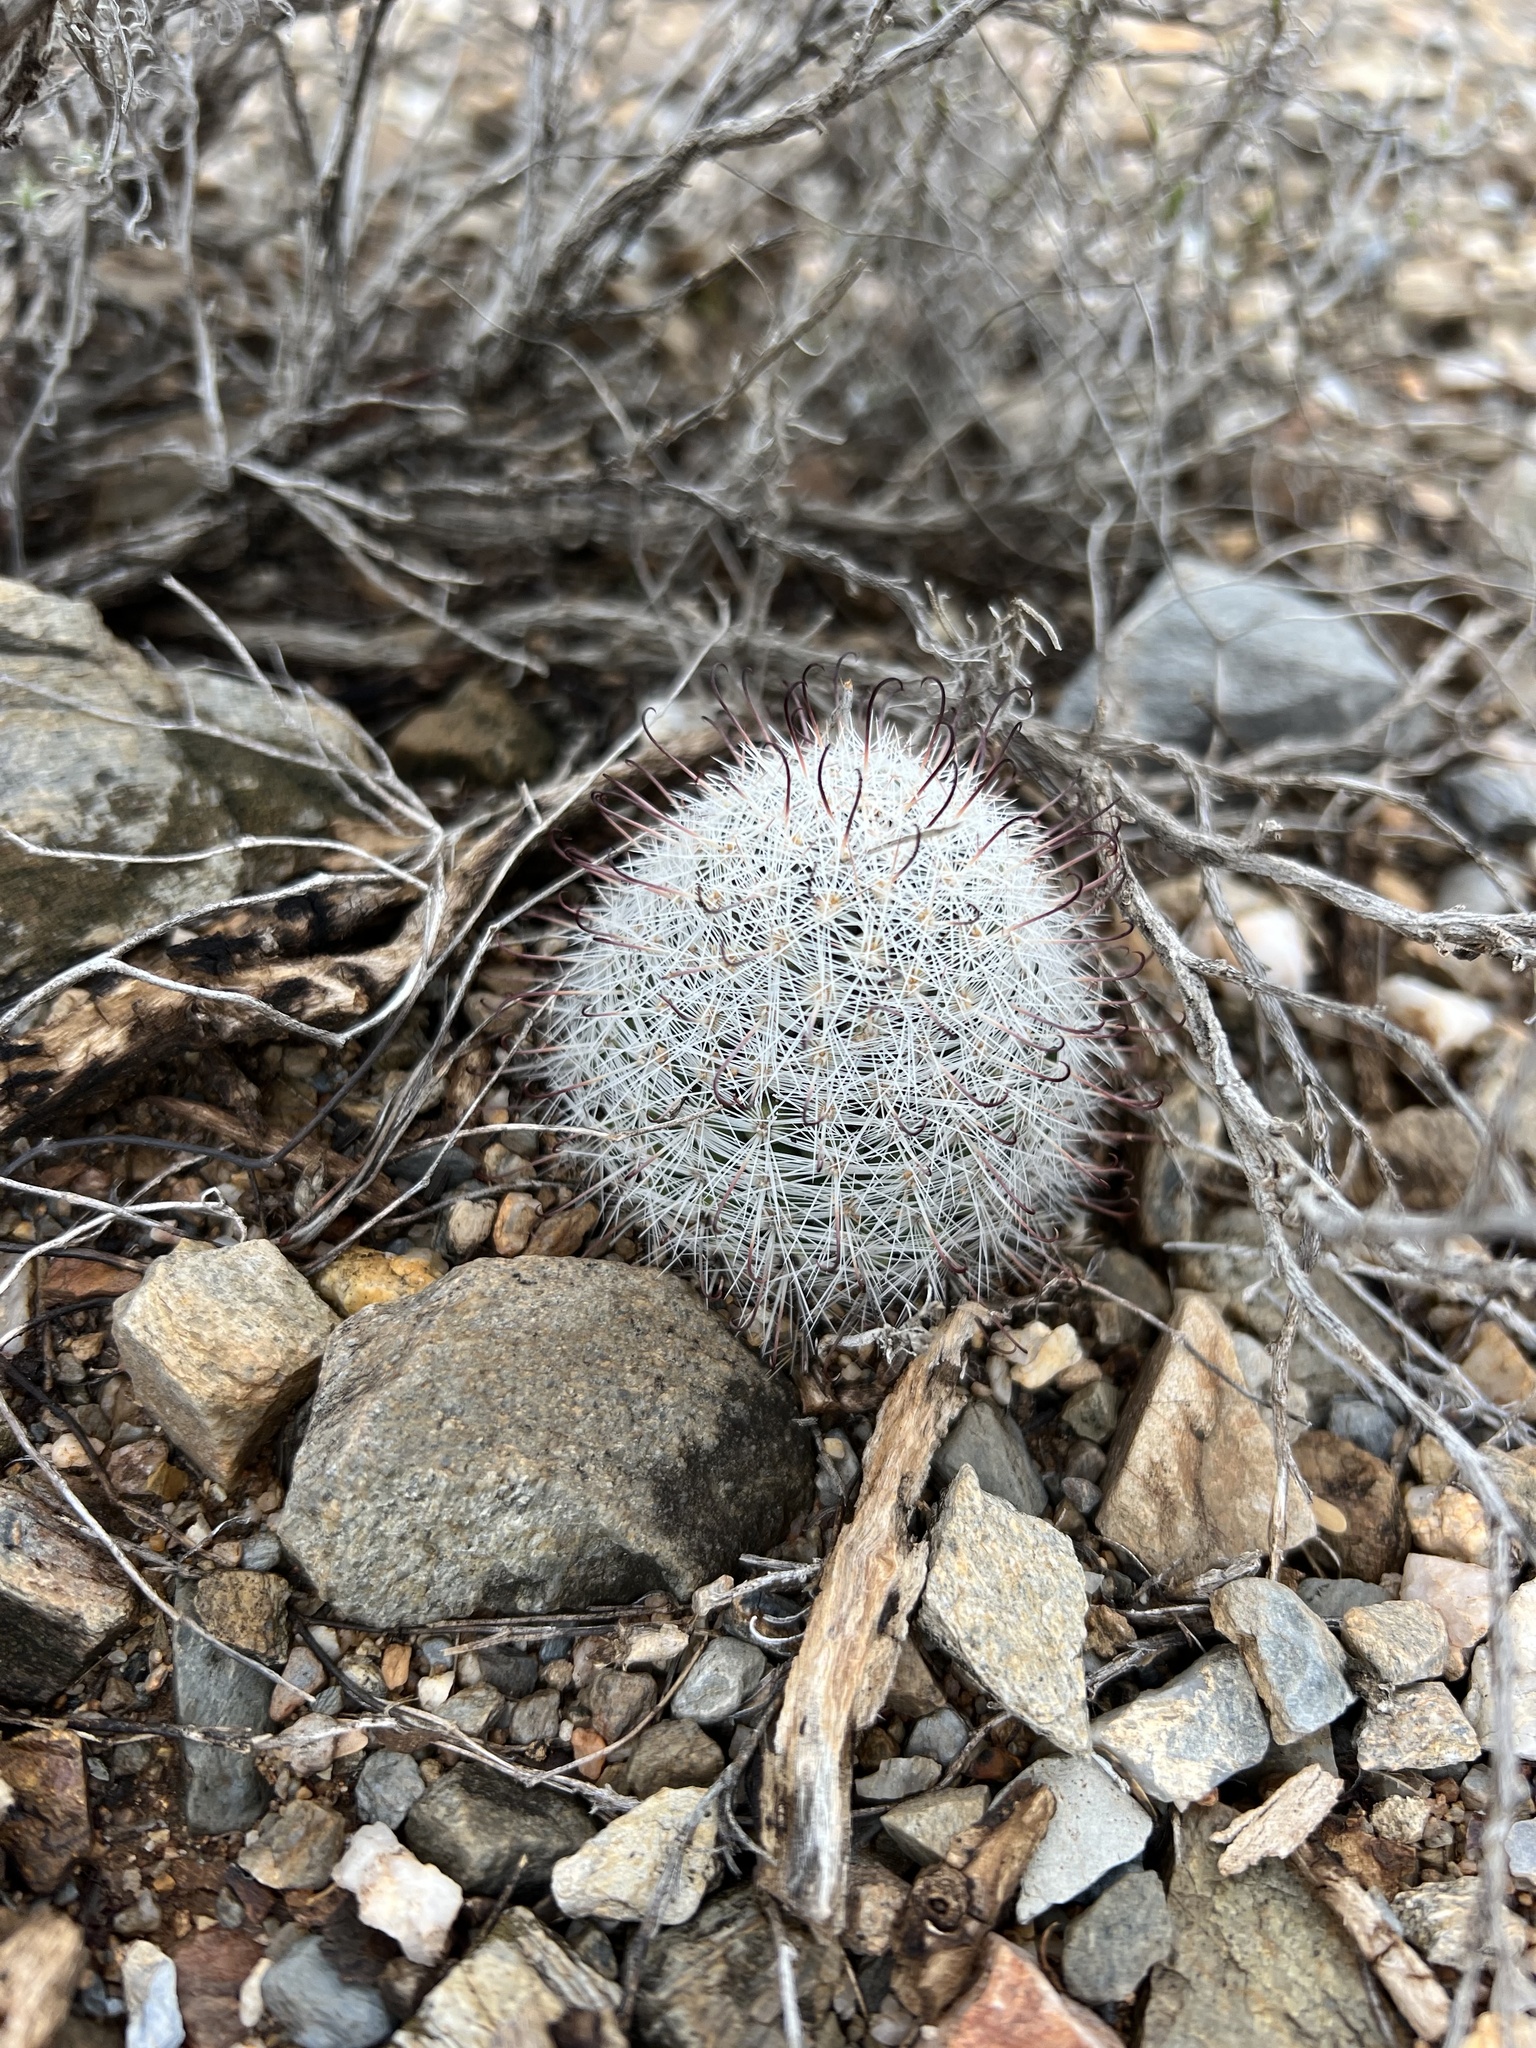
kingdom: Plantae
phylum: Tracheophyta
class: Magnoliopsida
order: Caryophyllales
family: Cactaceae
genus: Cochemiea
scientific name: Cochemiea grahamii
